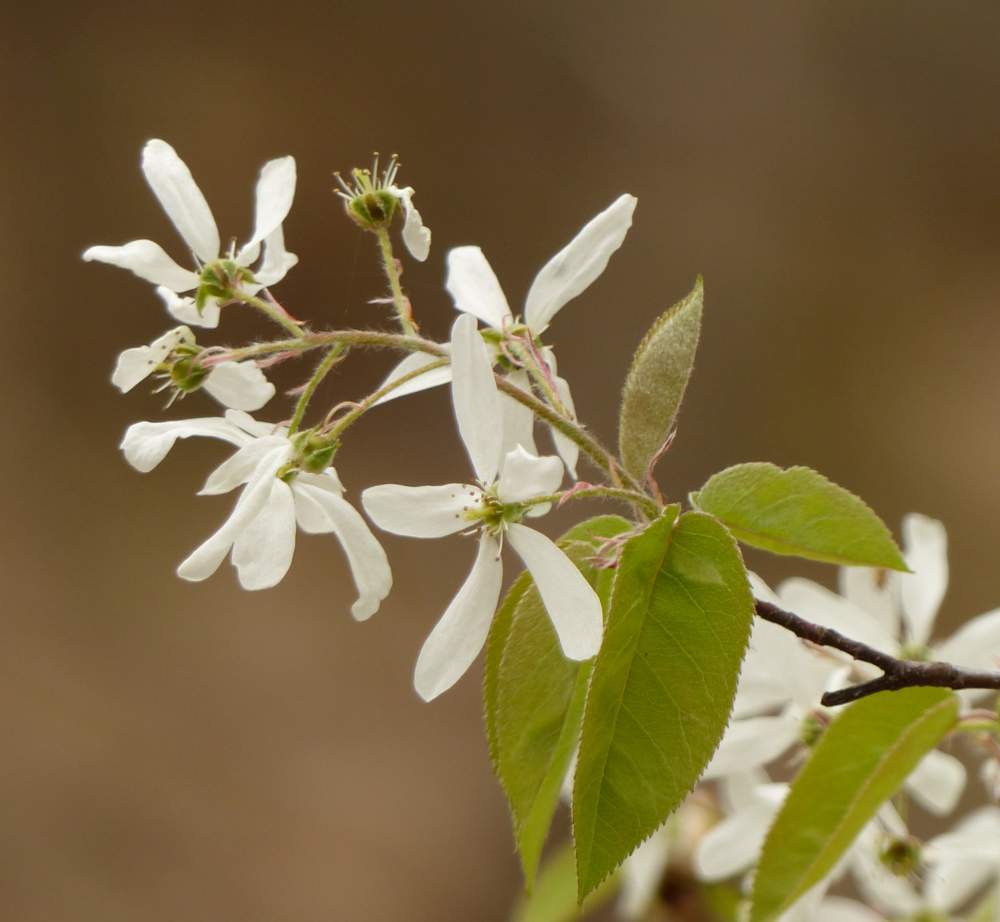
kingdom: Plantae
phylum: Tracheophyta
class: Magnoliopsida
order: Rosales
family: Rosaceae
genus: Amelanchier
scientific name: Amelanchier arborea
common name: Downy serviceberry
